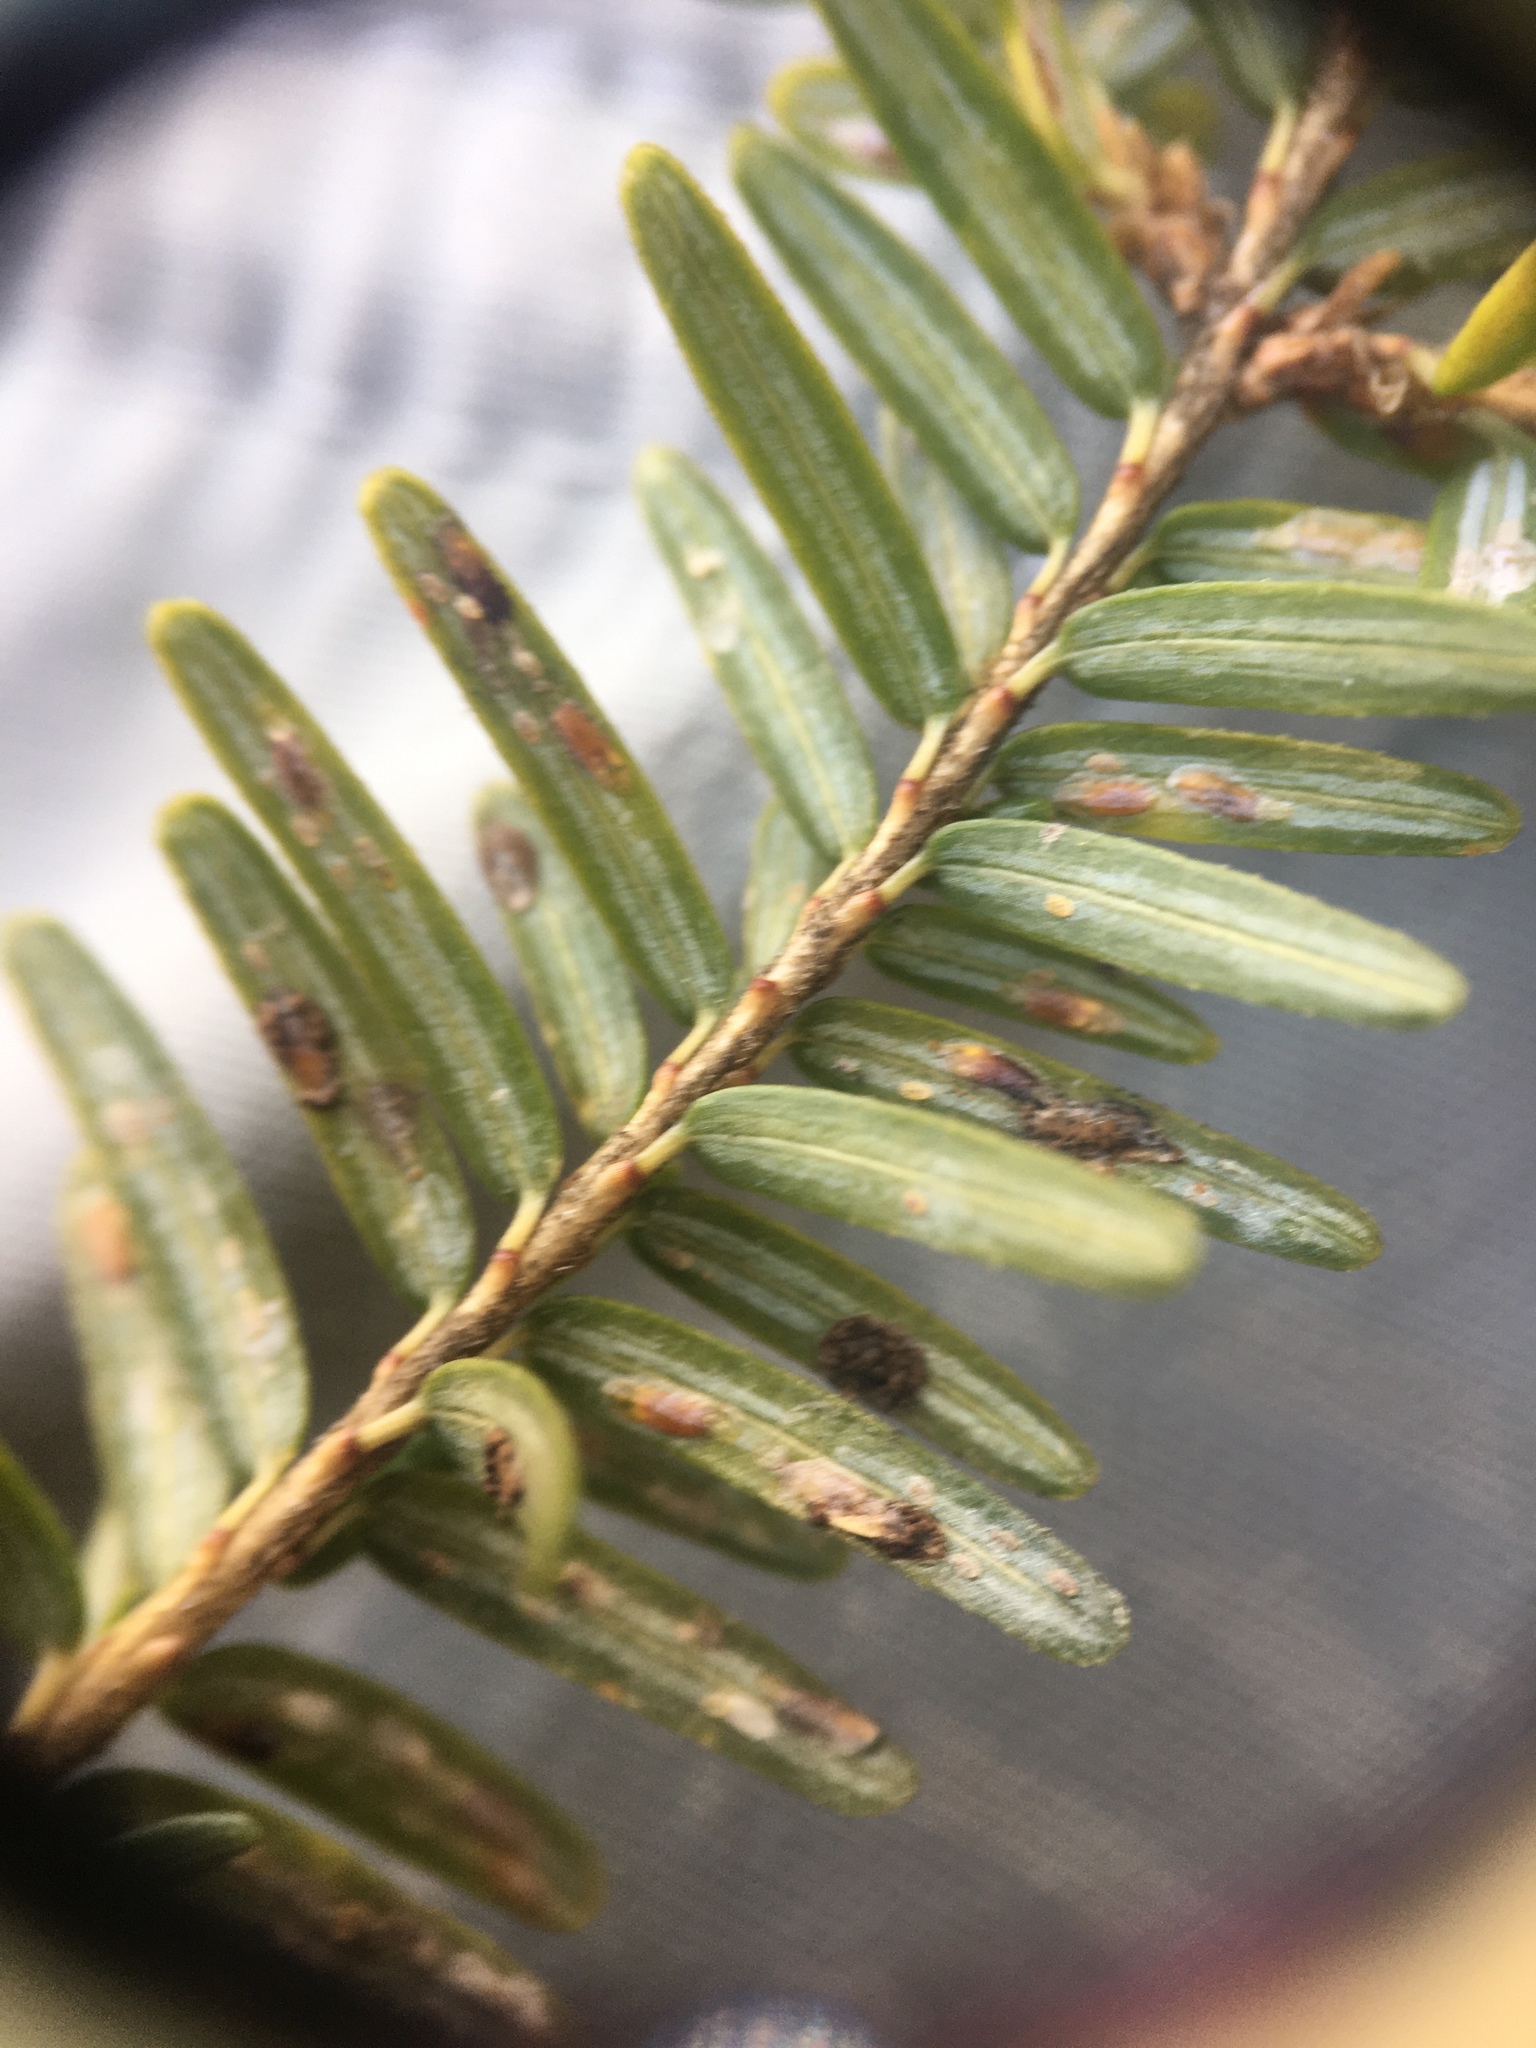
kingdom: Animalia
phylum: Arthropoda
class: Insecta
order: Hemiptera
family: Diaspididae
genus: Fiorinia
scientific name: Fiorinia externa
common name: Elongate hemlock scale
